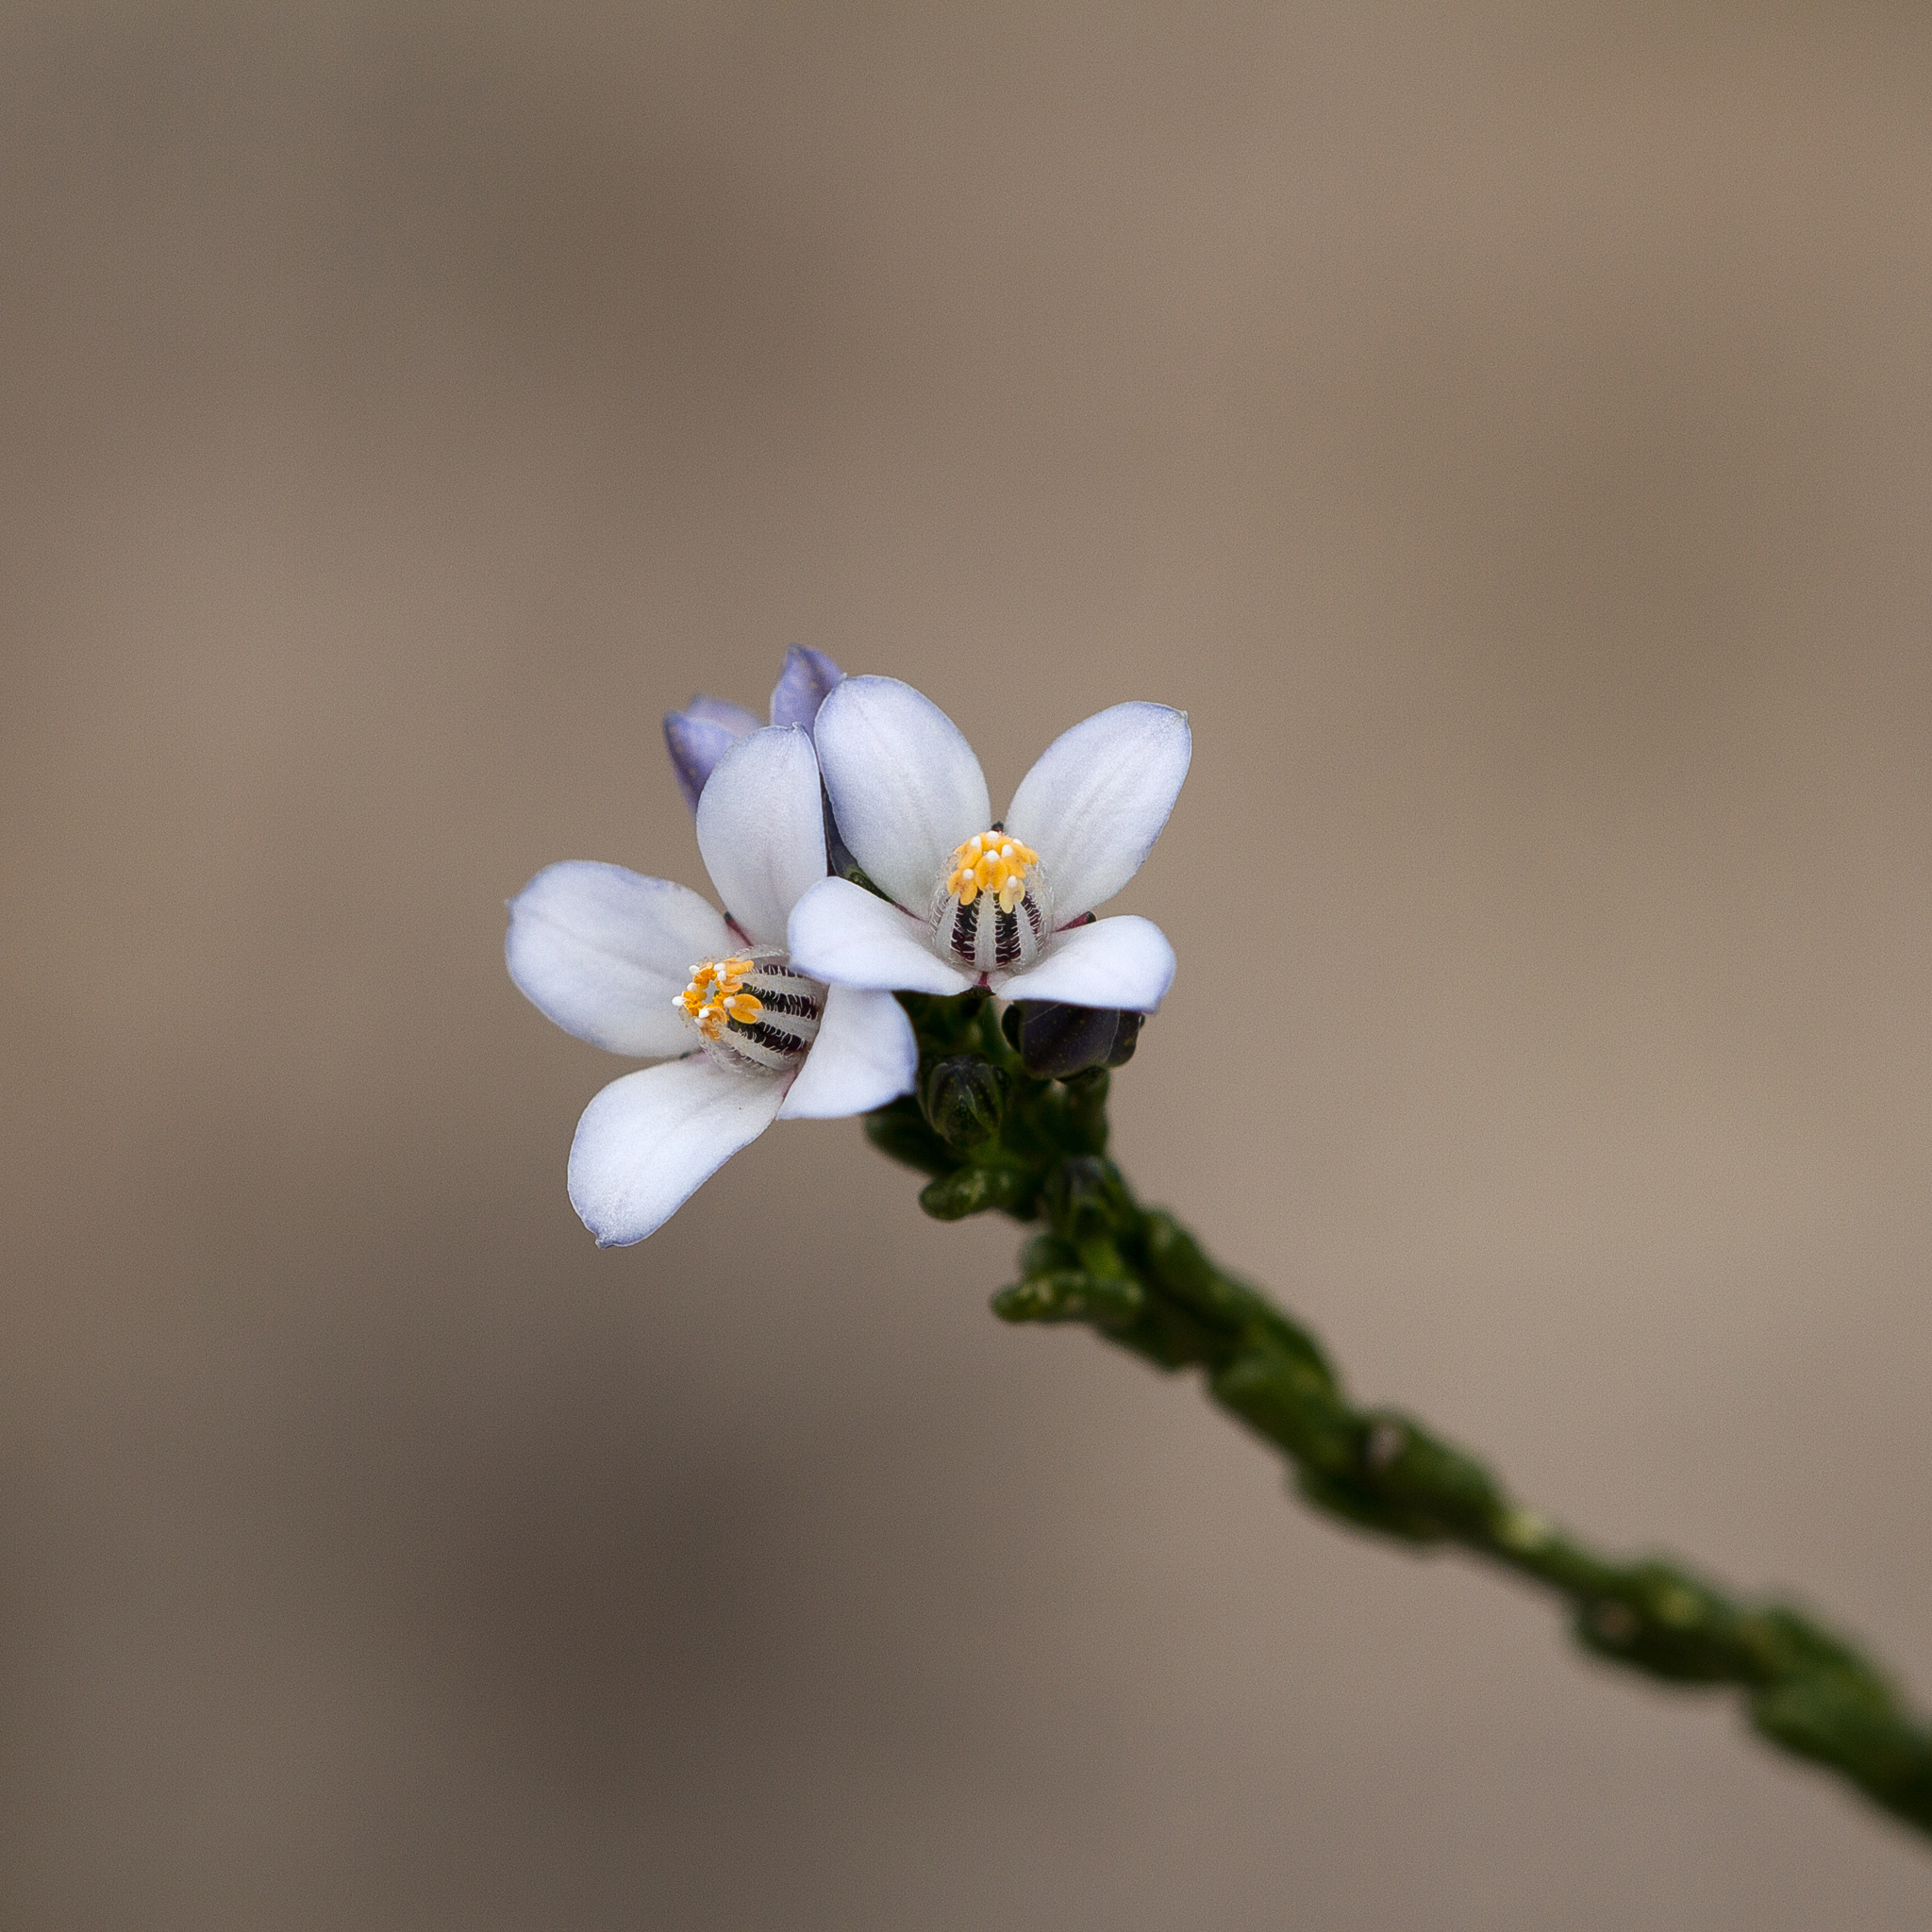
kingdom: Plantae
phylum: Tracheophyta
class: Magnoliopsida
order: Sapindales
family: Rutaceae
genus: Cyanothamnus
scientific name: Cyanothamnus coerulescens
